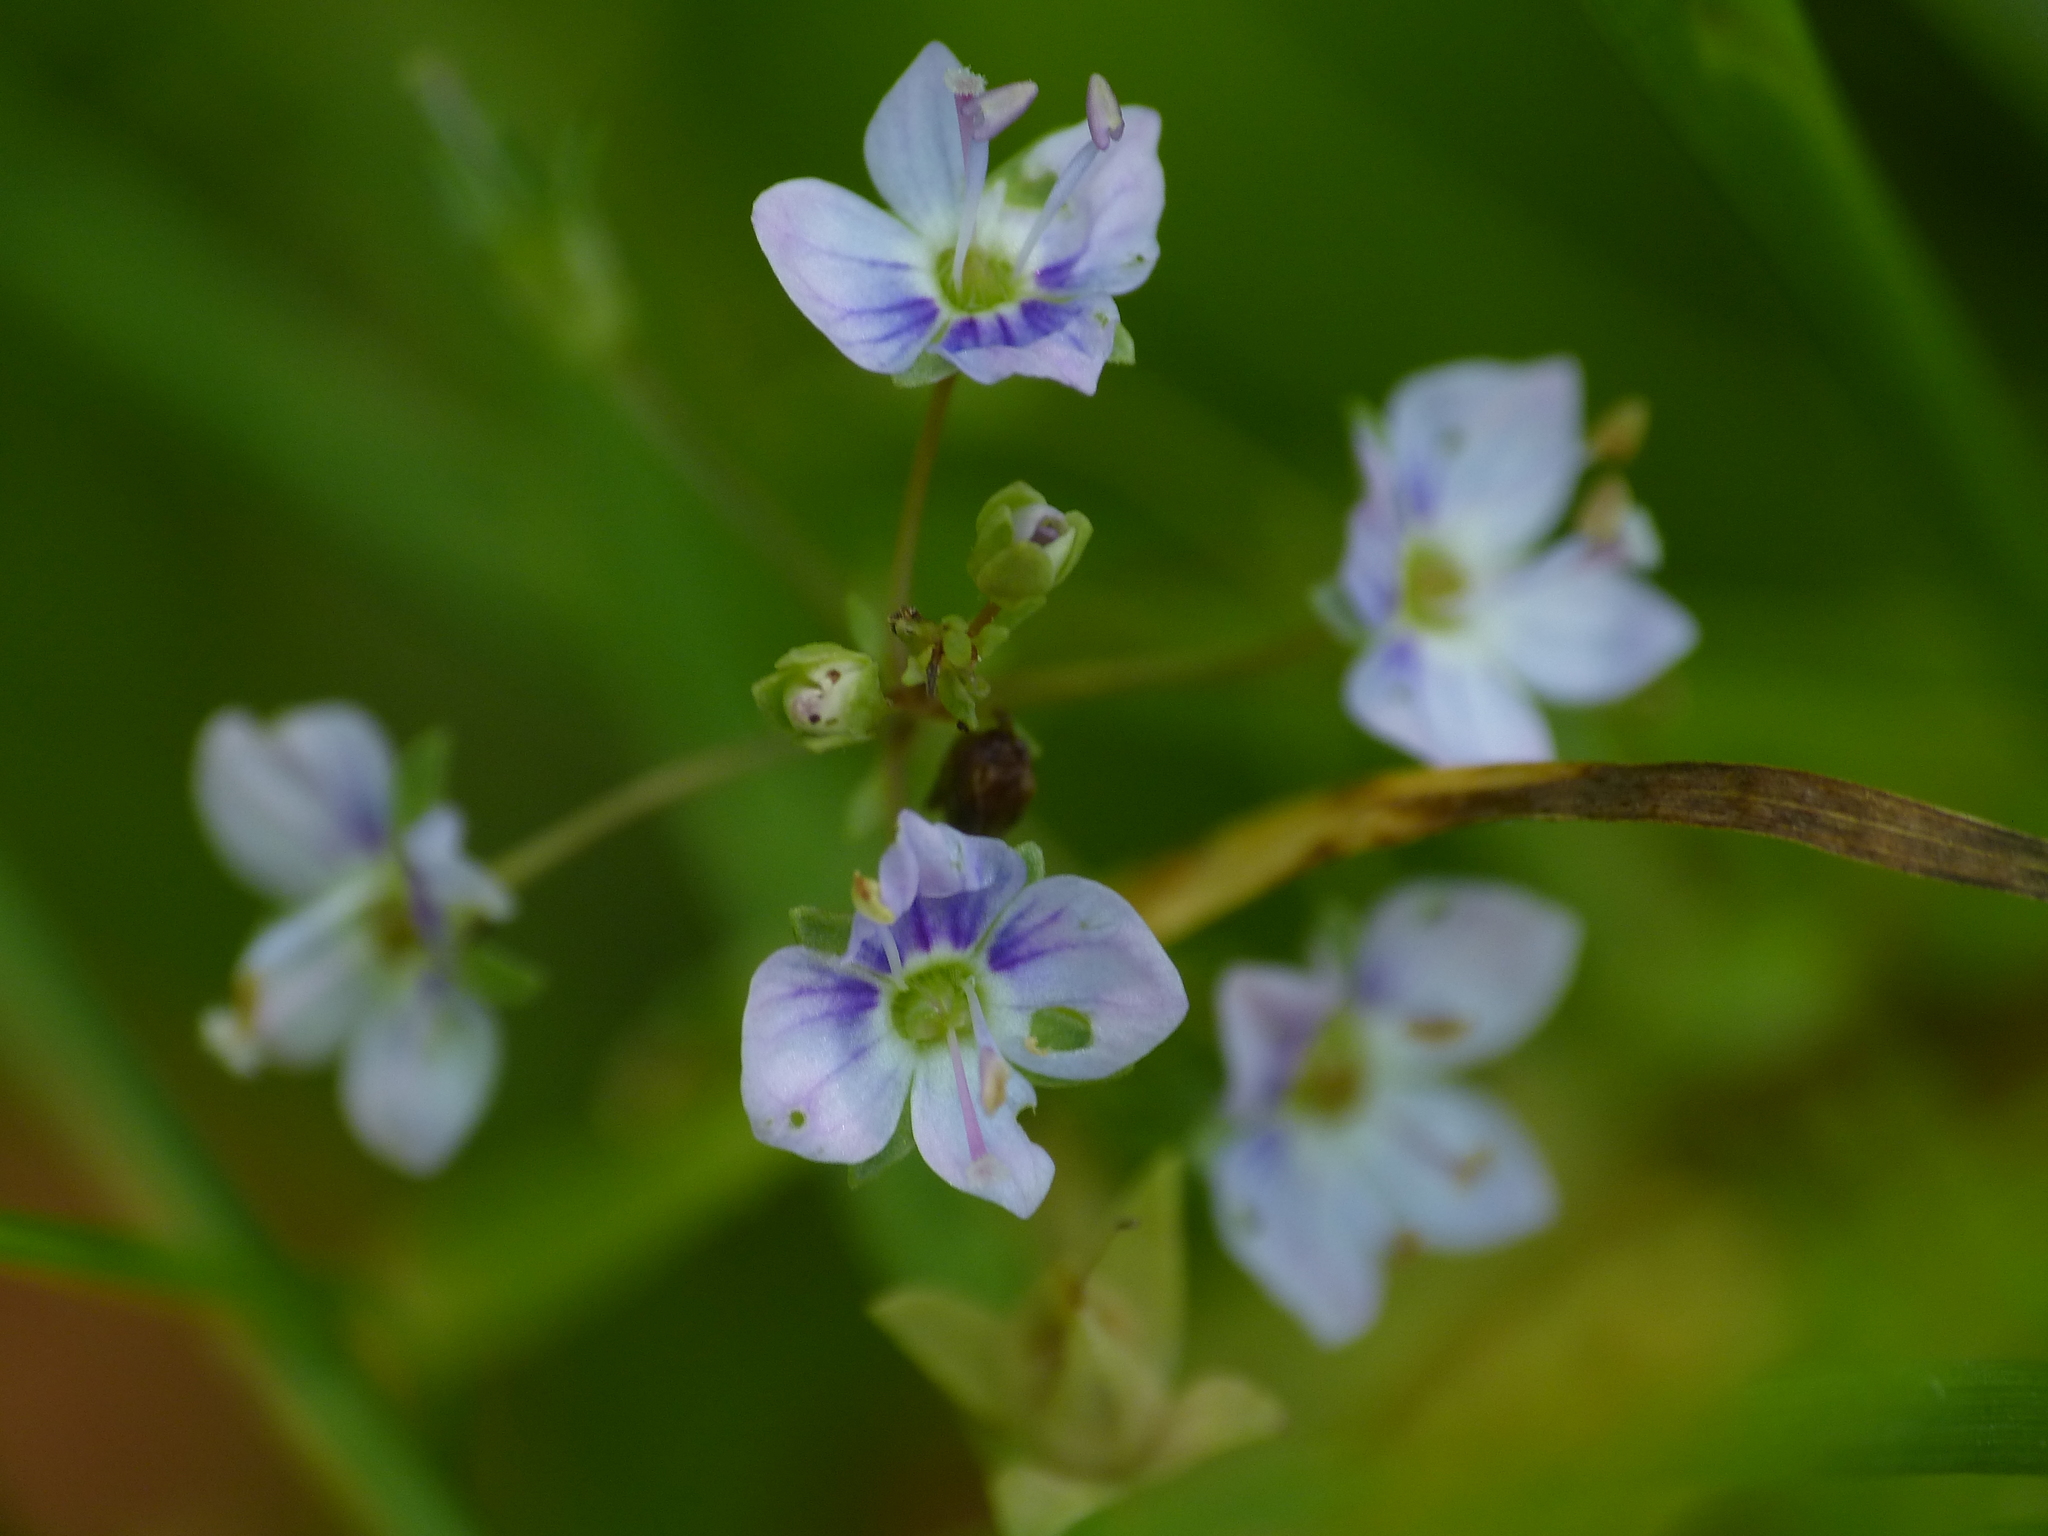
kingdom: Plantae
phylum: Tracheophyta
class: Magnoliopsida
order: Lamiales
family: Plantaginaceae
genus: Veronica
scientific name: Veronica anagallis-aquatica
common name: Water speedwell
